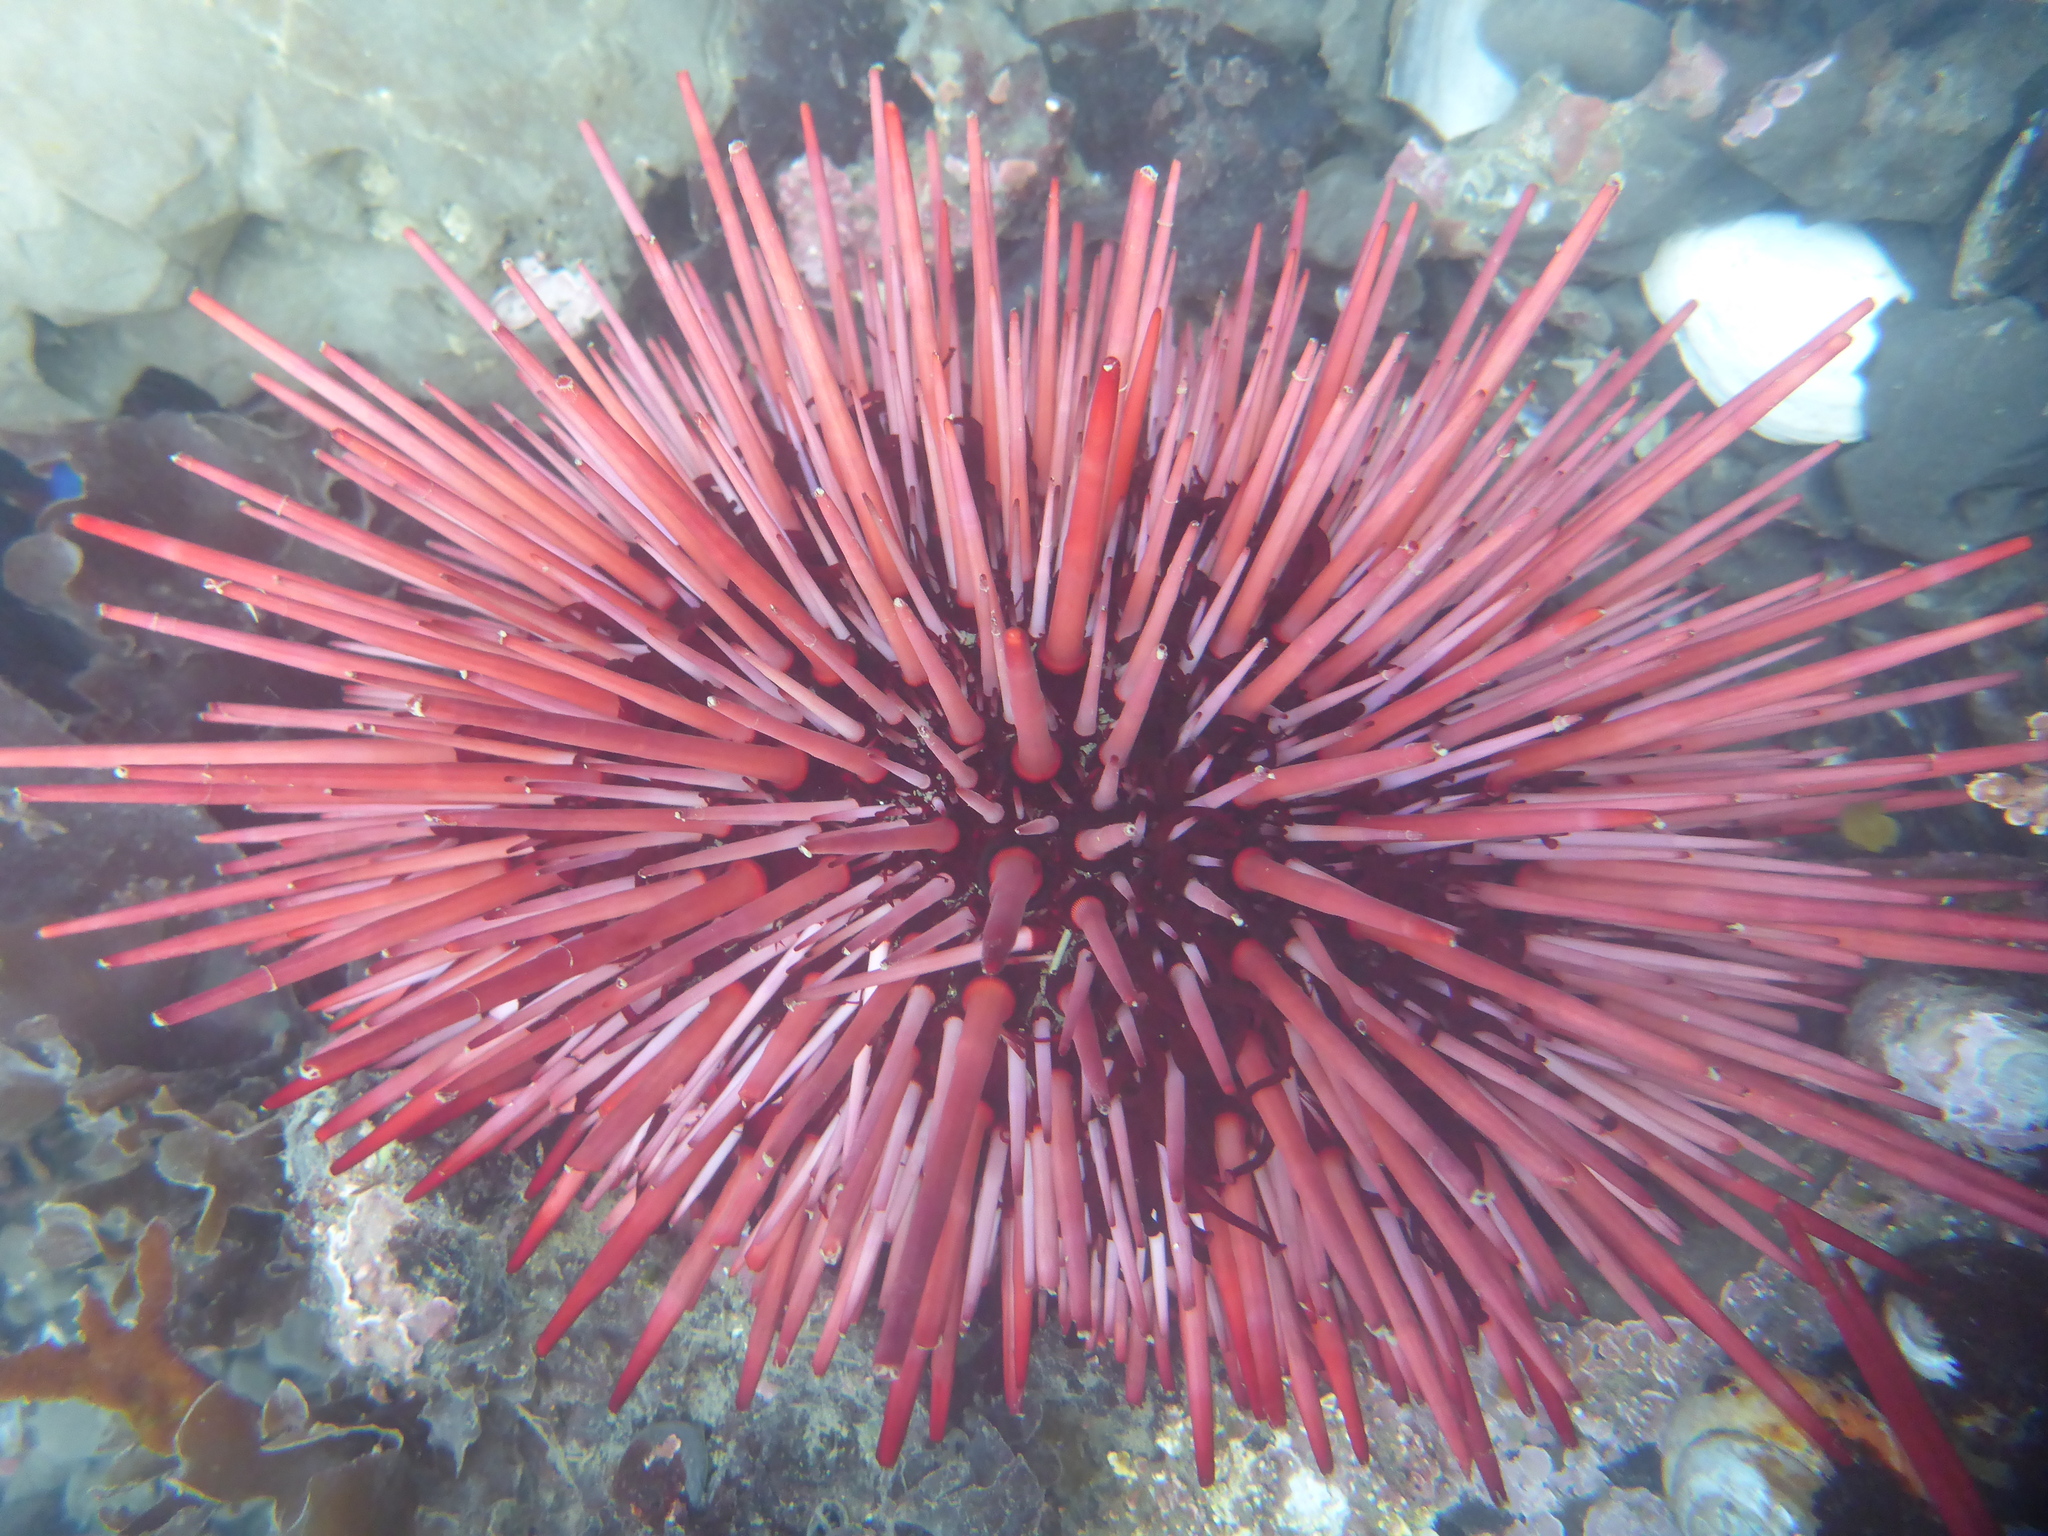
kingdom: Animalia
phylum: Echinodermata
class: Echinoidea
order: Camarodonta
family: Strongylocentrotidae
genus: Mesocentrotus
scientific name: Mesocentrotus franciscanus
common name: Red sea urchin
